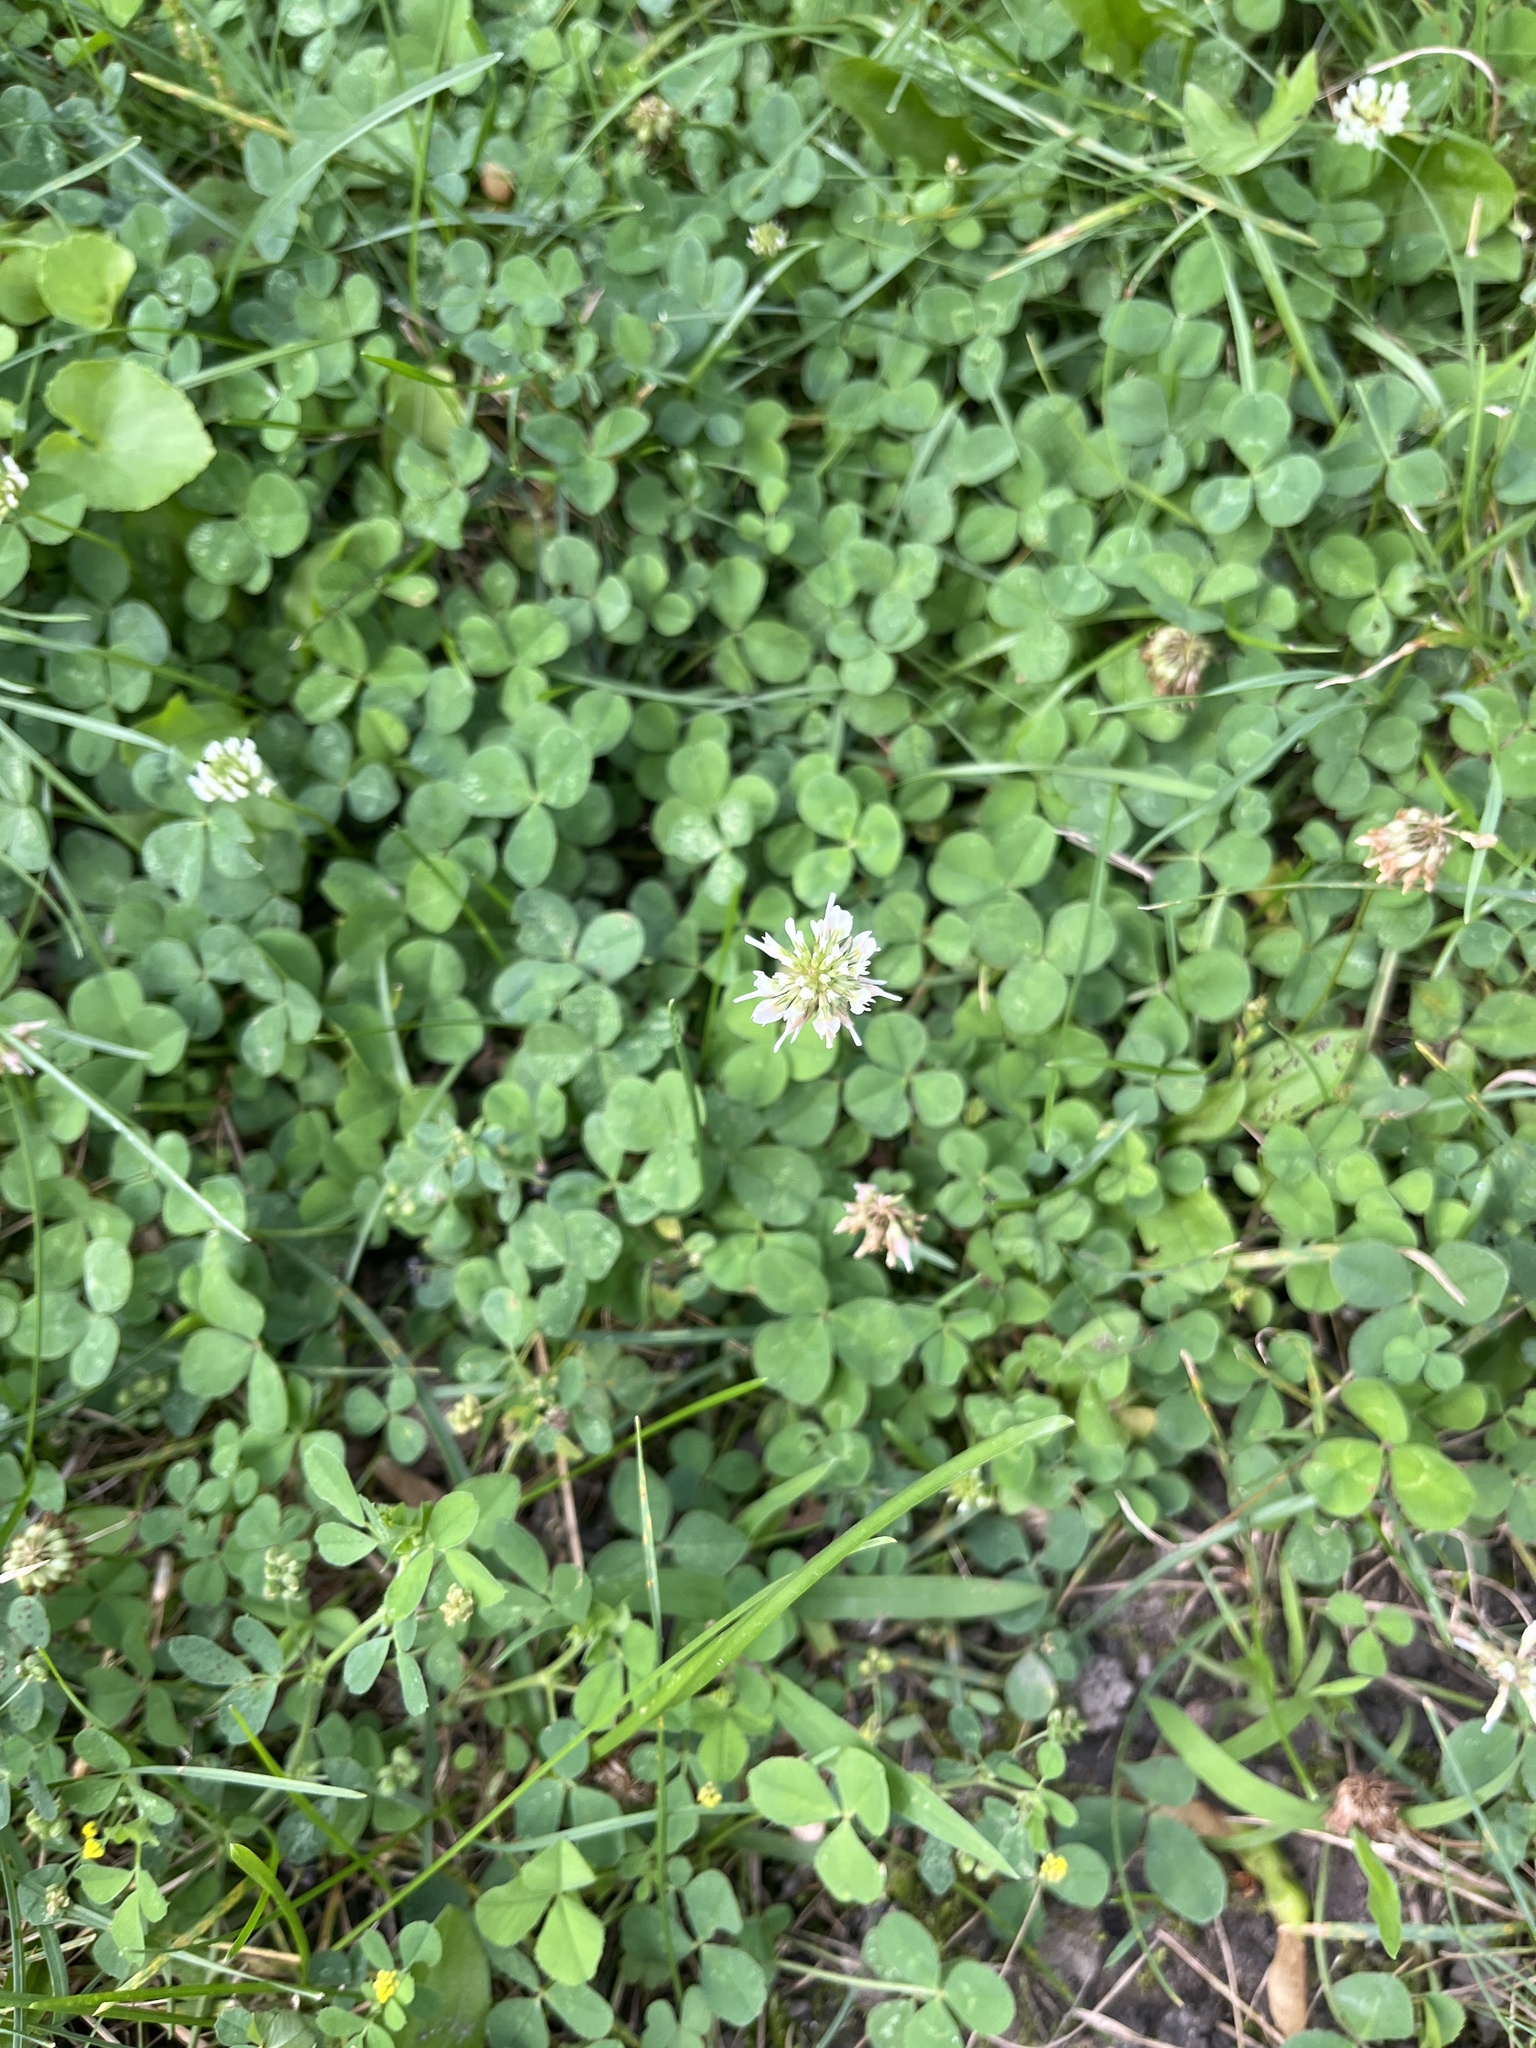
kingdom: Plantae
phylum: Tracheophyta
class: Magnoliopsida
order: Fabales
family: Fabaceae
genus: Trifolium
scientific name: Trifolium repens
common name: White clover
